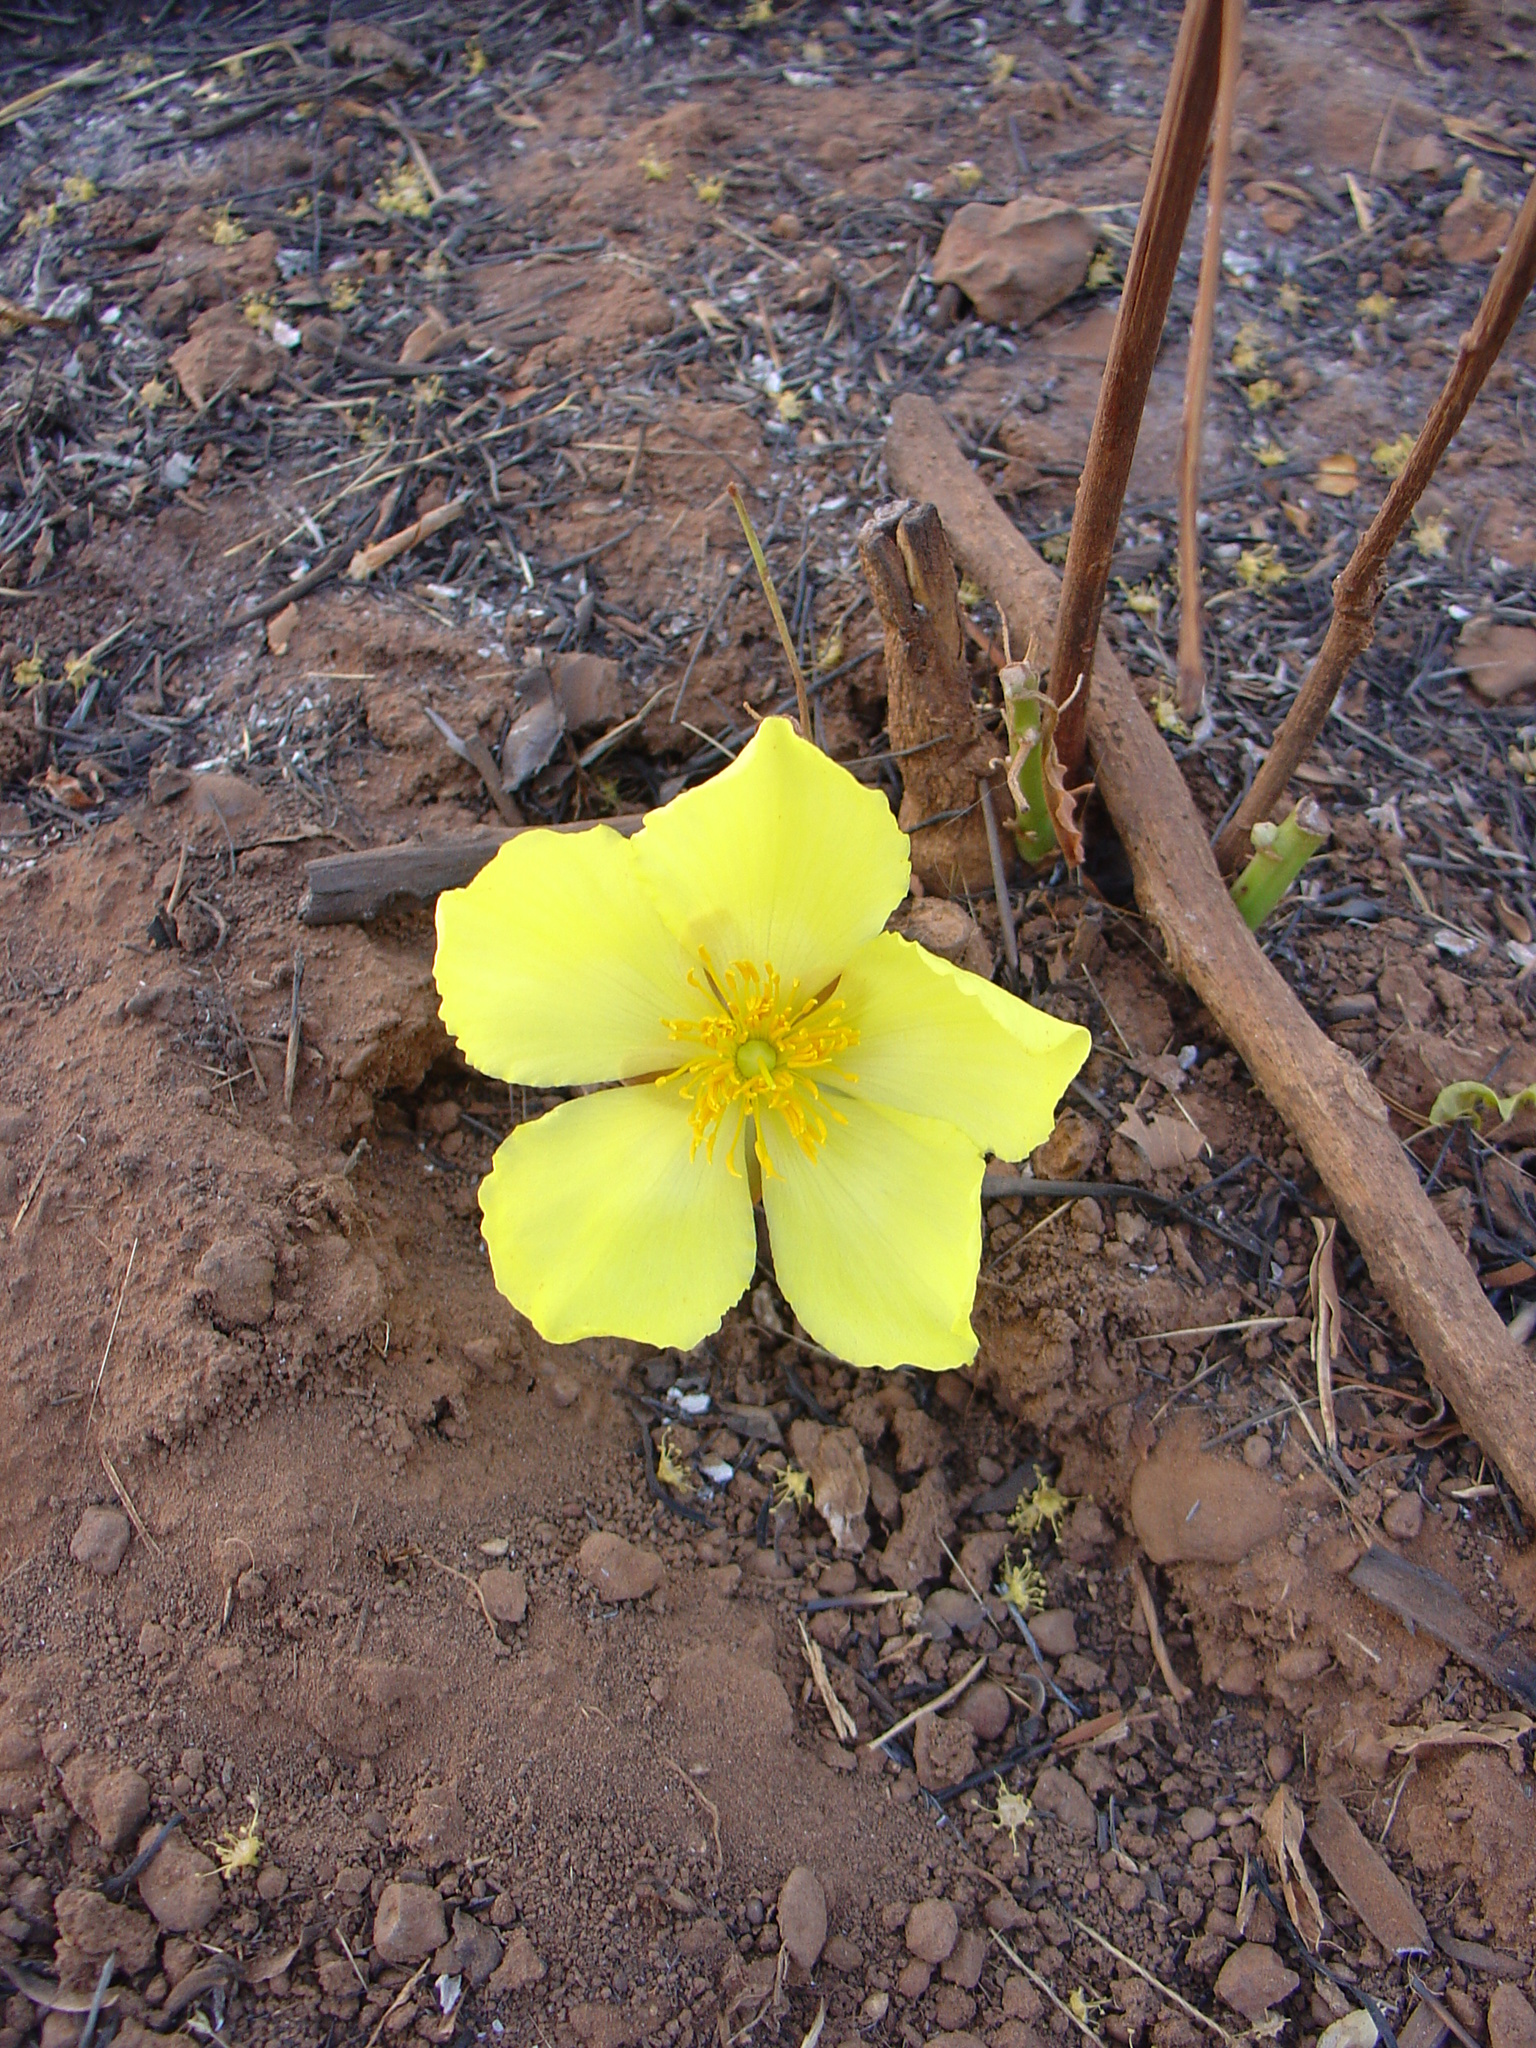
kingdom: Plantae
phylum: Tracheophyta
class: Magnoliopsida
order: Malvales
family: Cochlospermaceae
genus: Cochlospermum
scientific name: Cochlospermum tinctorium
